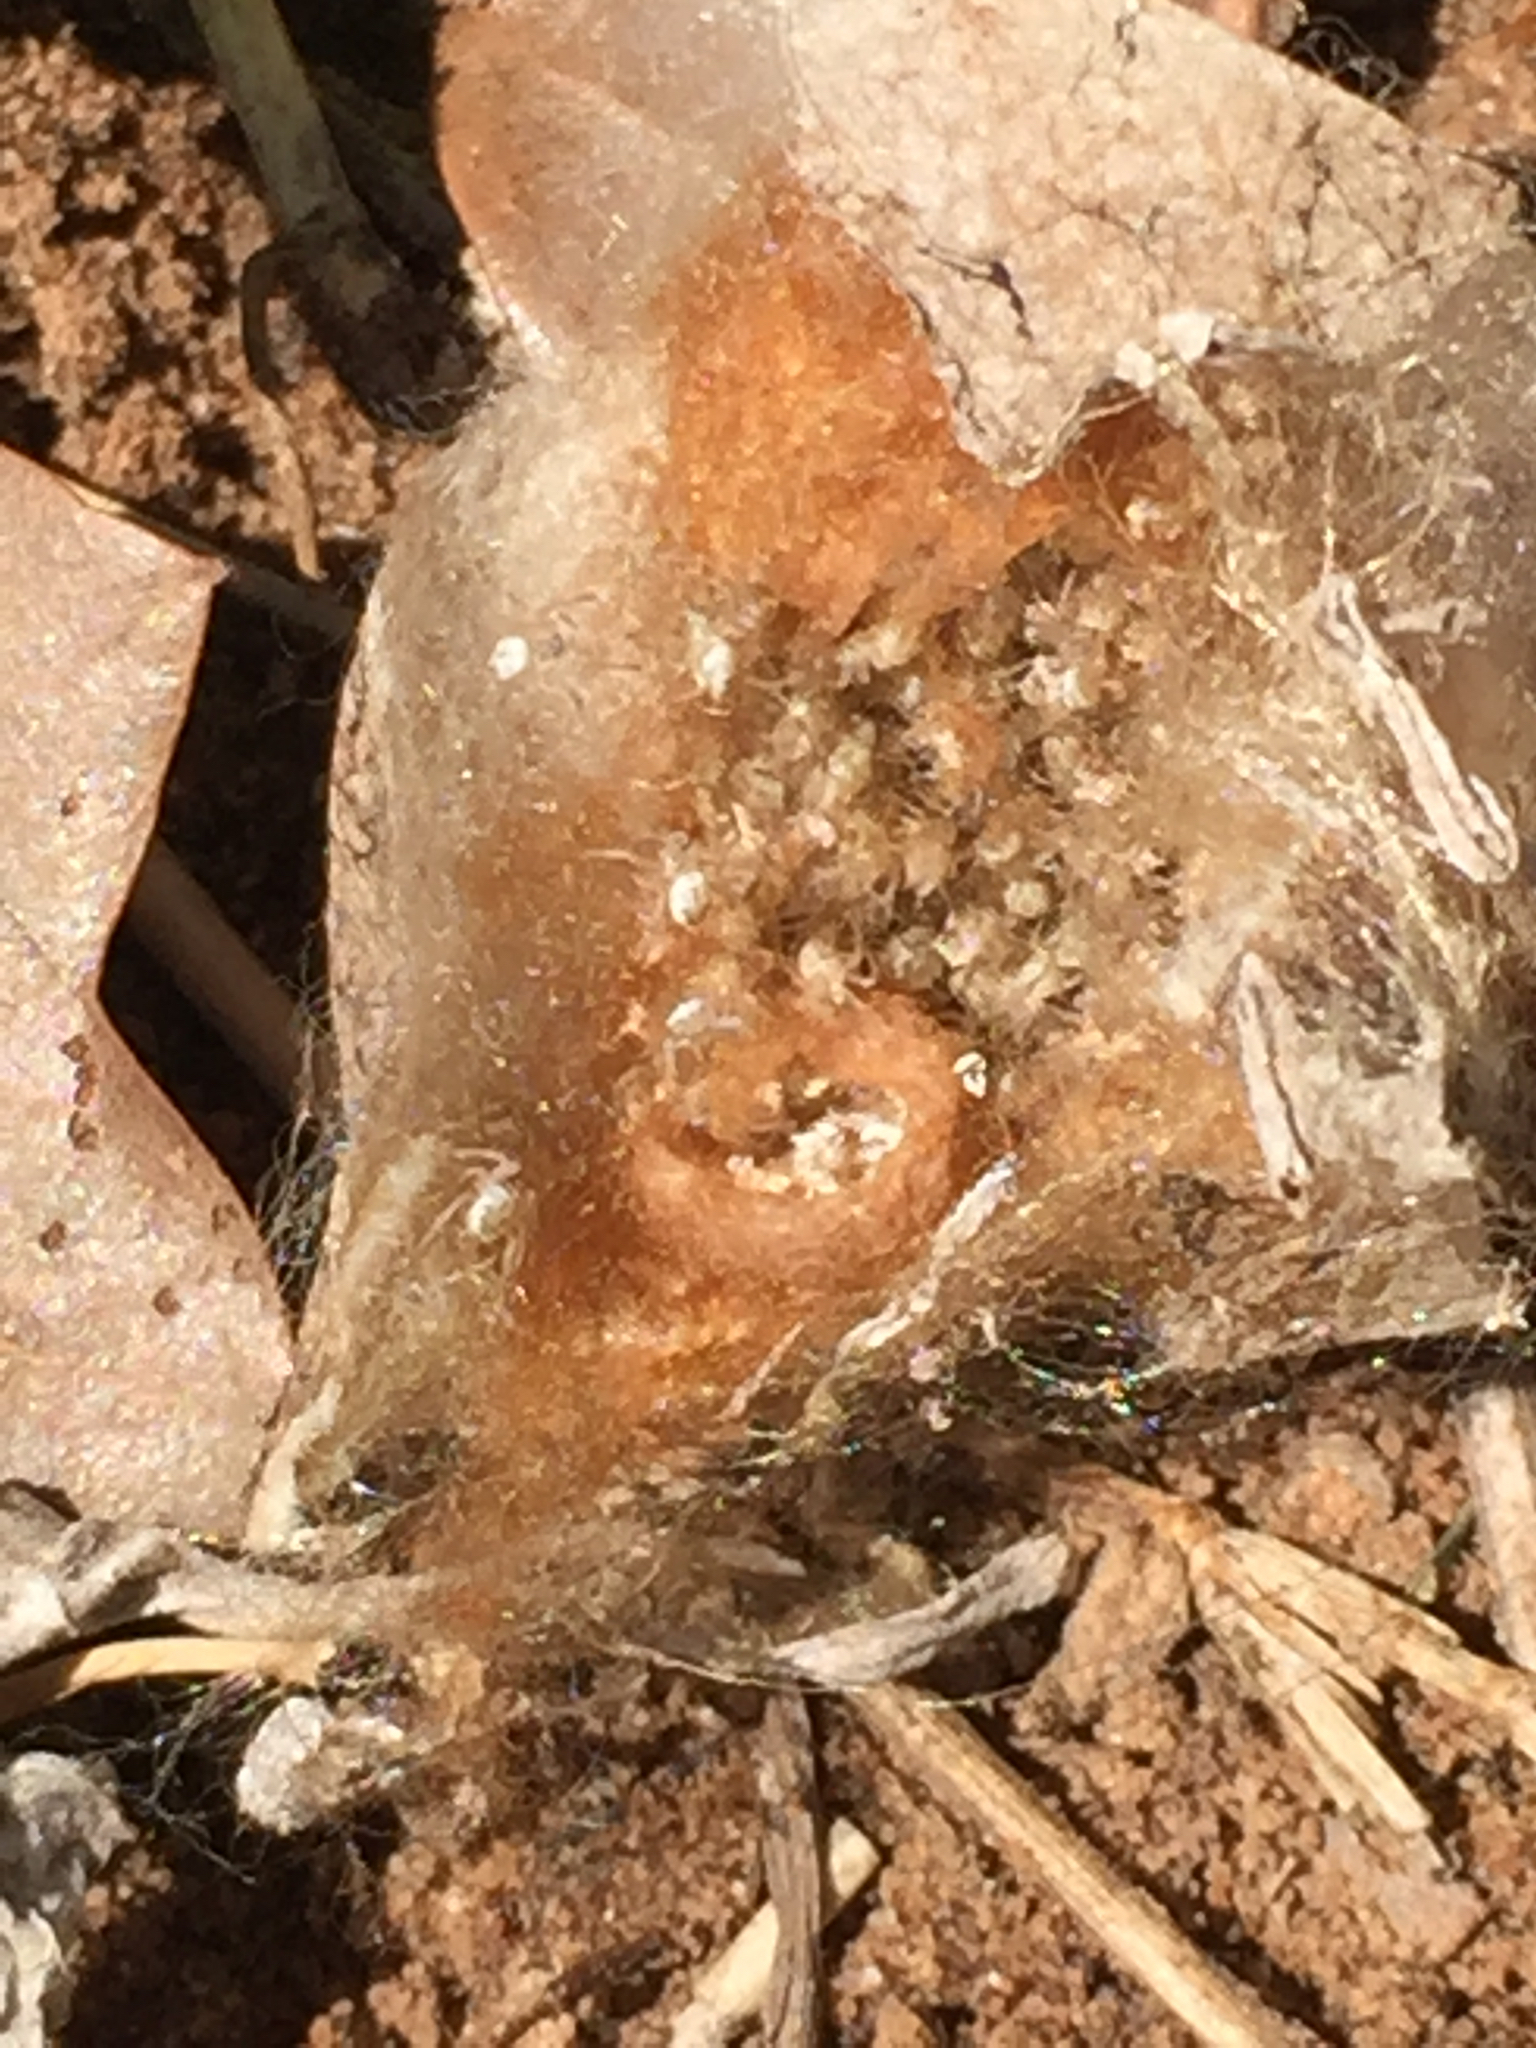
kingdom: Animalia
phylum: Arthropoda
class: Arachnida
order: Araneae
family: Araneidae
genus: Argiope
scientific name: Argiope aurantia
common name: Orb weavers
